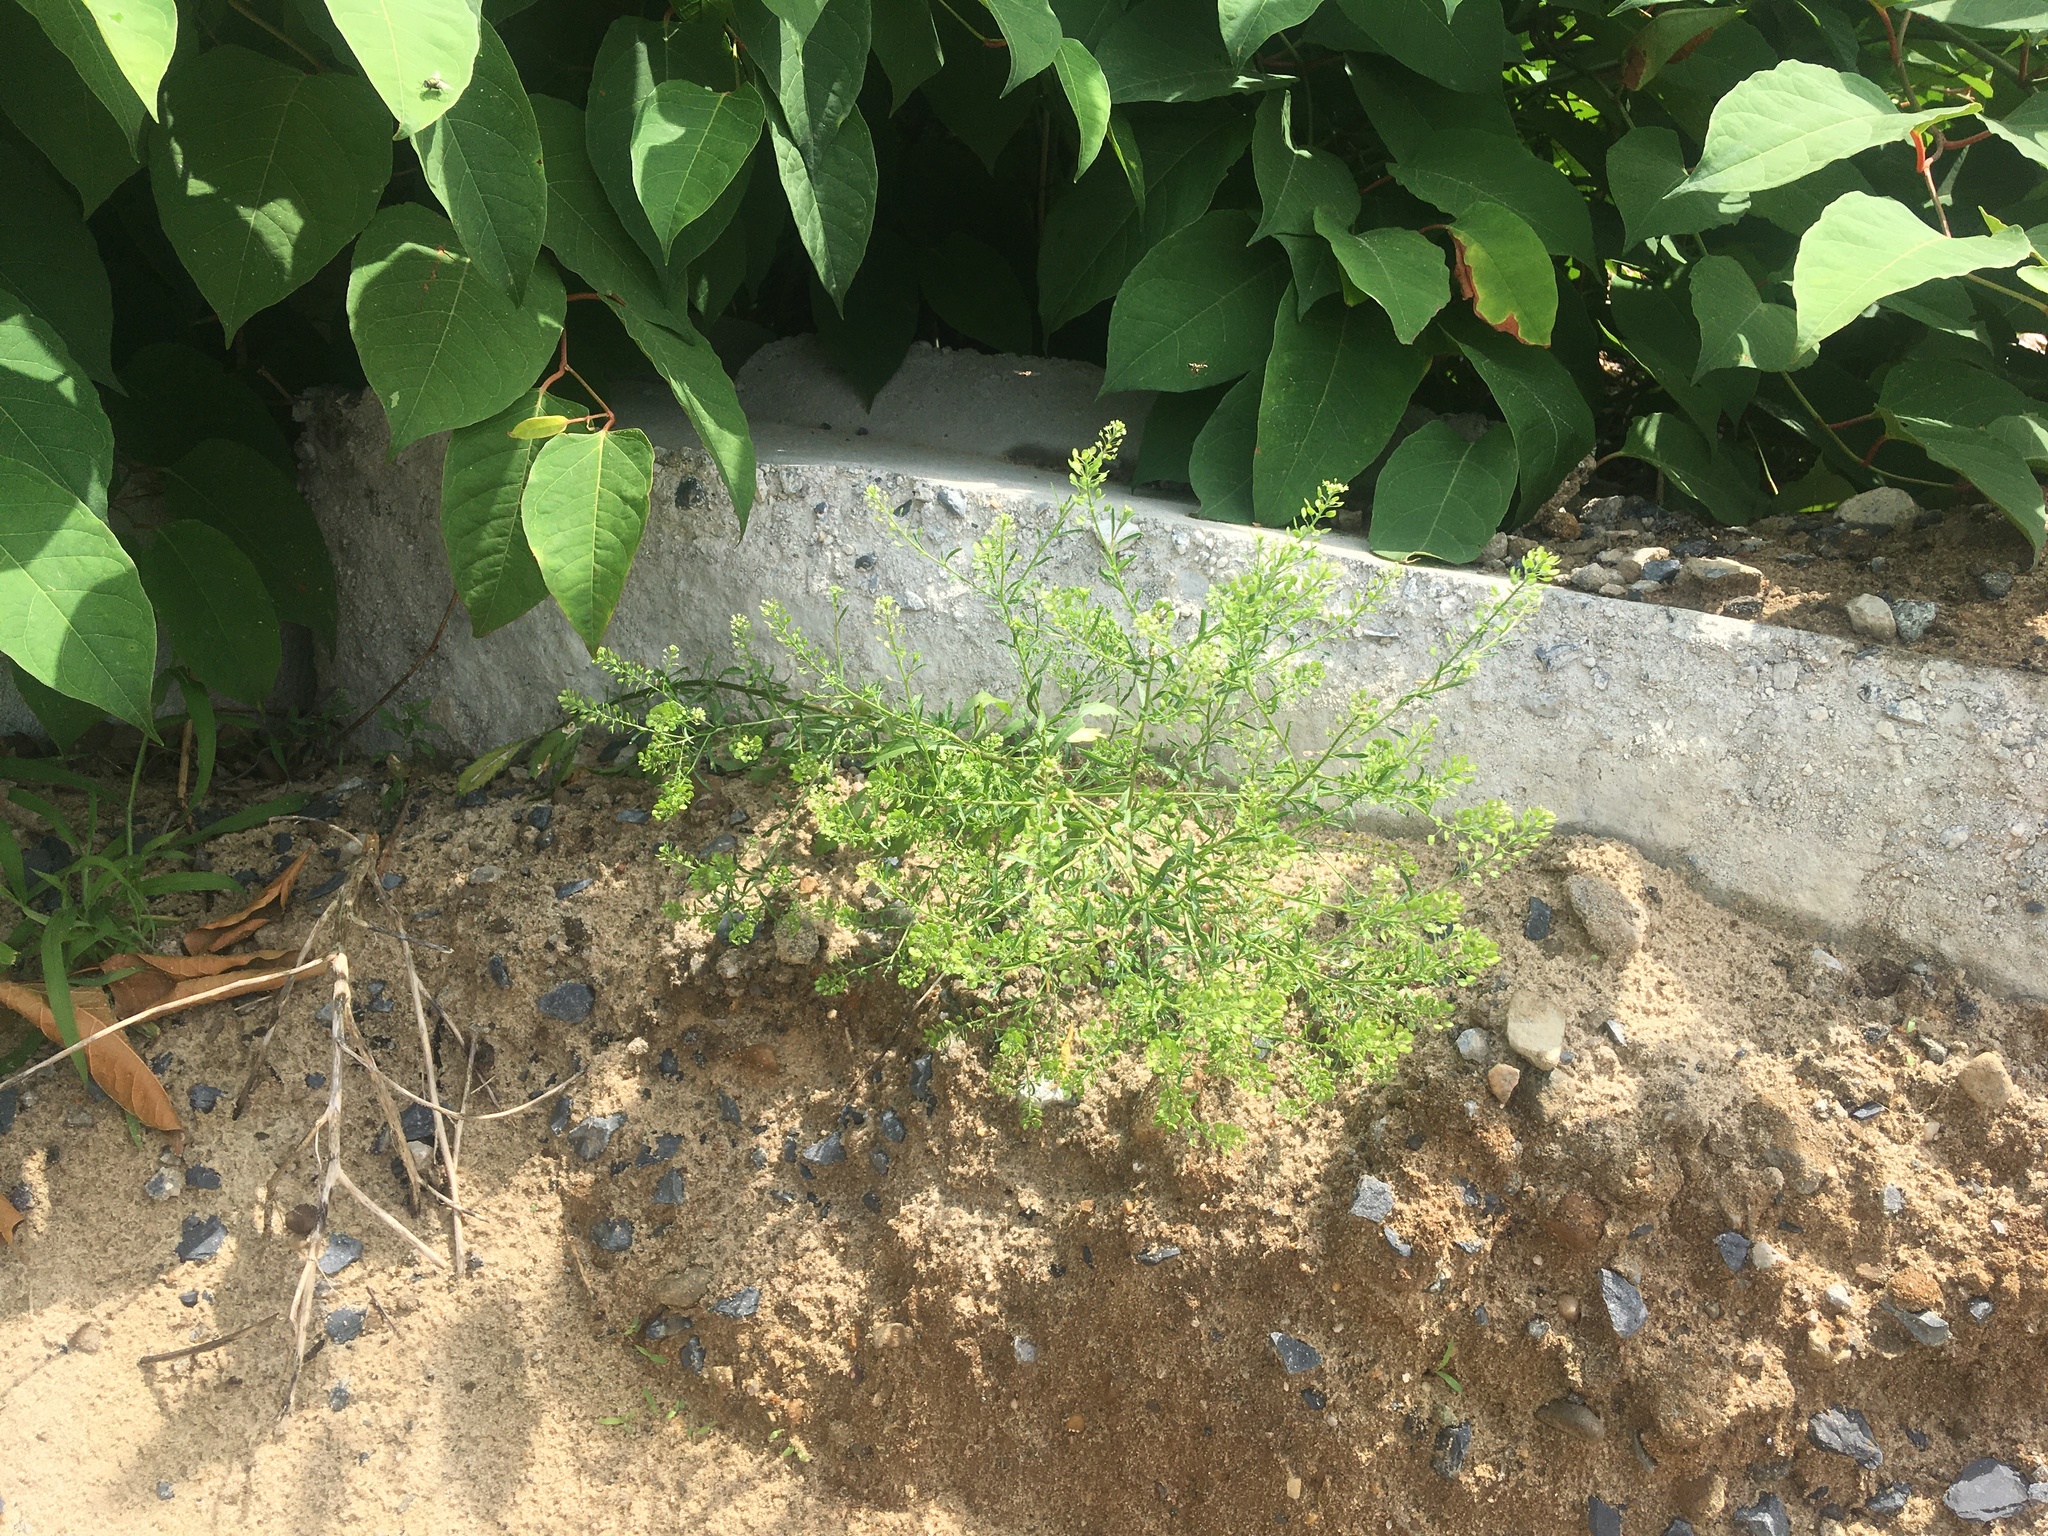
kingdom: Plantae
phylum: Tracheophyta
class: Magnoliopsida
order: Brassicales
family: Brassicaceae
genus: Lepidium
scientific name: Lepidium virginicum
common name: Least pepperwort
